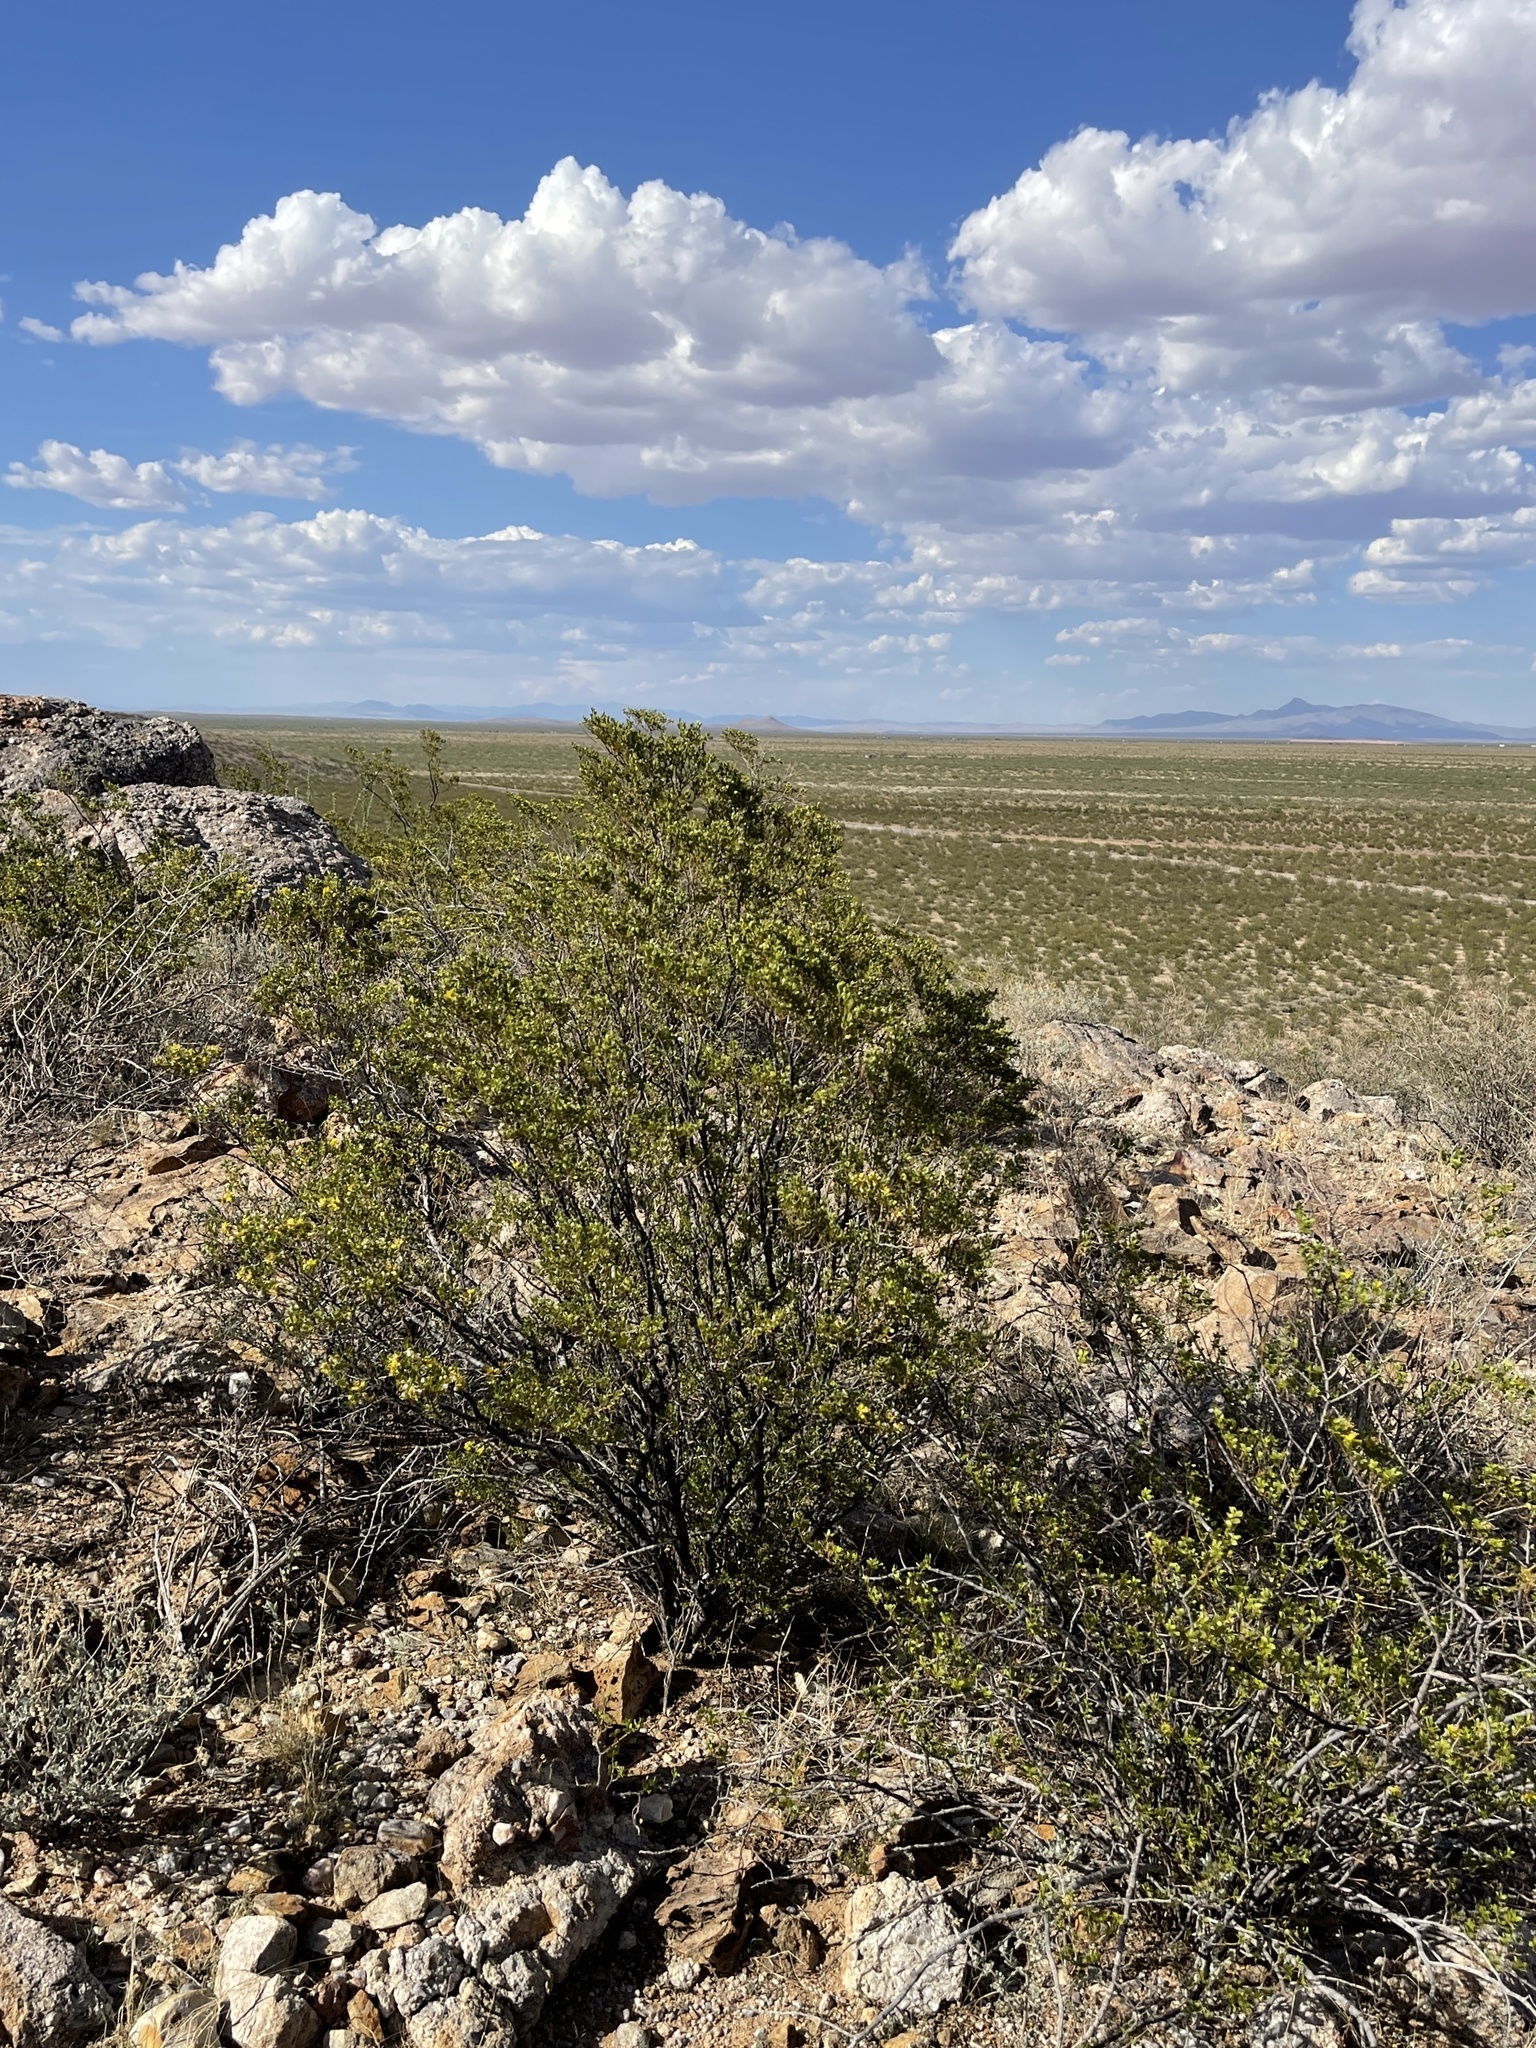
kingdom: Plantae
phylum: Tracheophyta
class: Magnoliopsida
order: Zygophyllales
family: Zygophyllaceae
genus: Larrea
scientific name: Larrea tridentata
